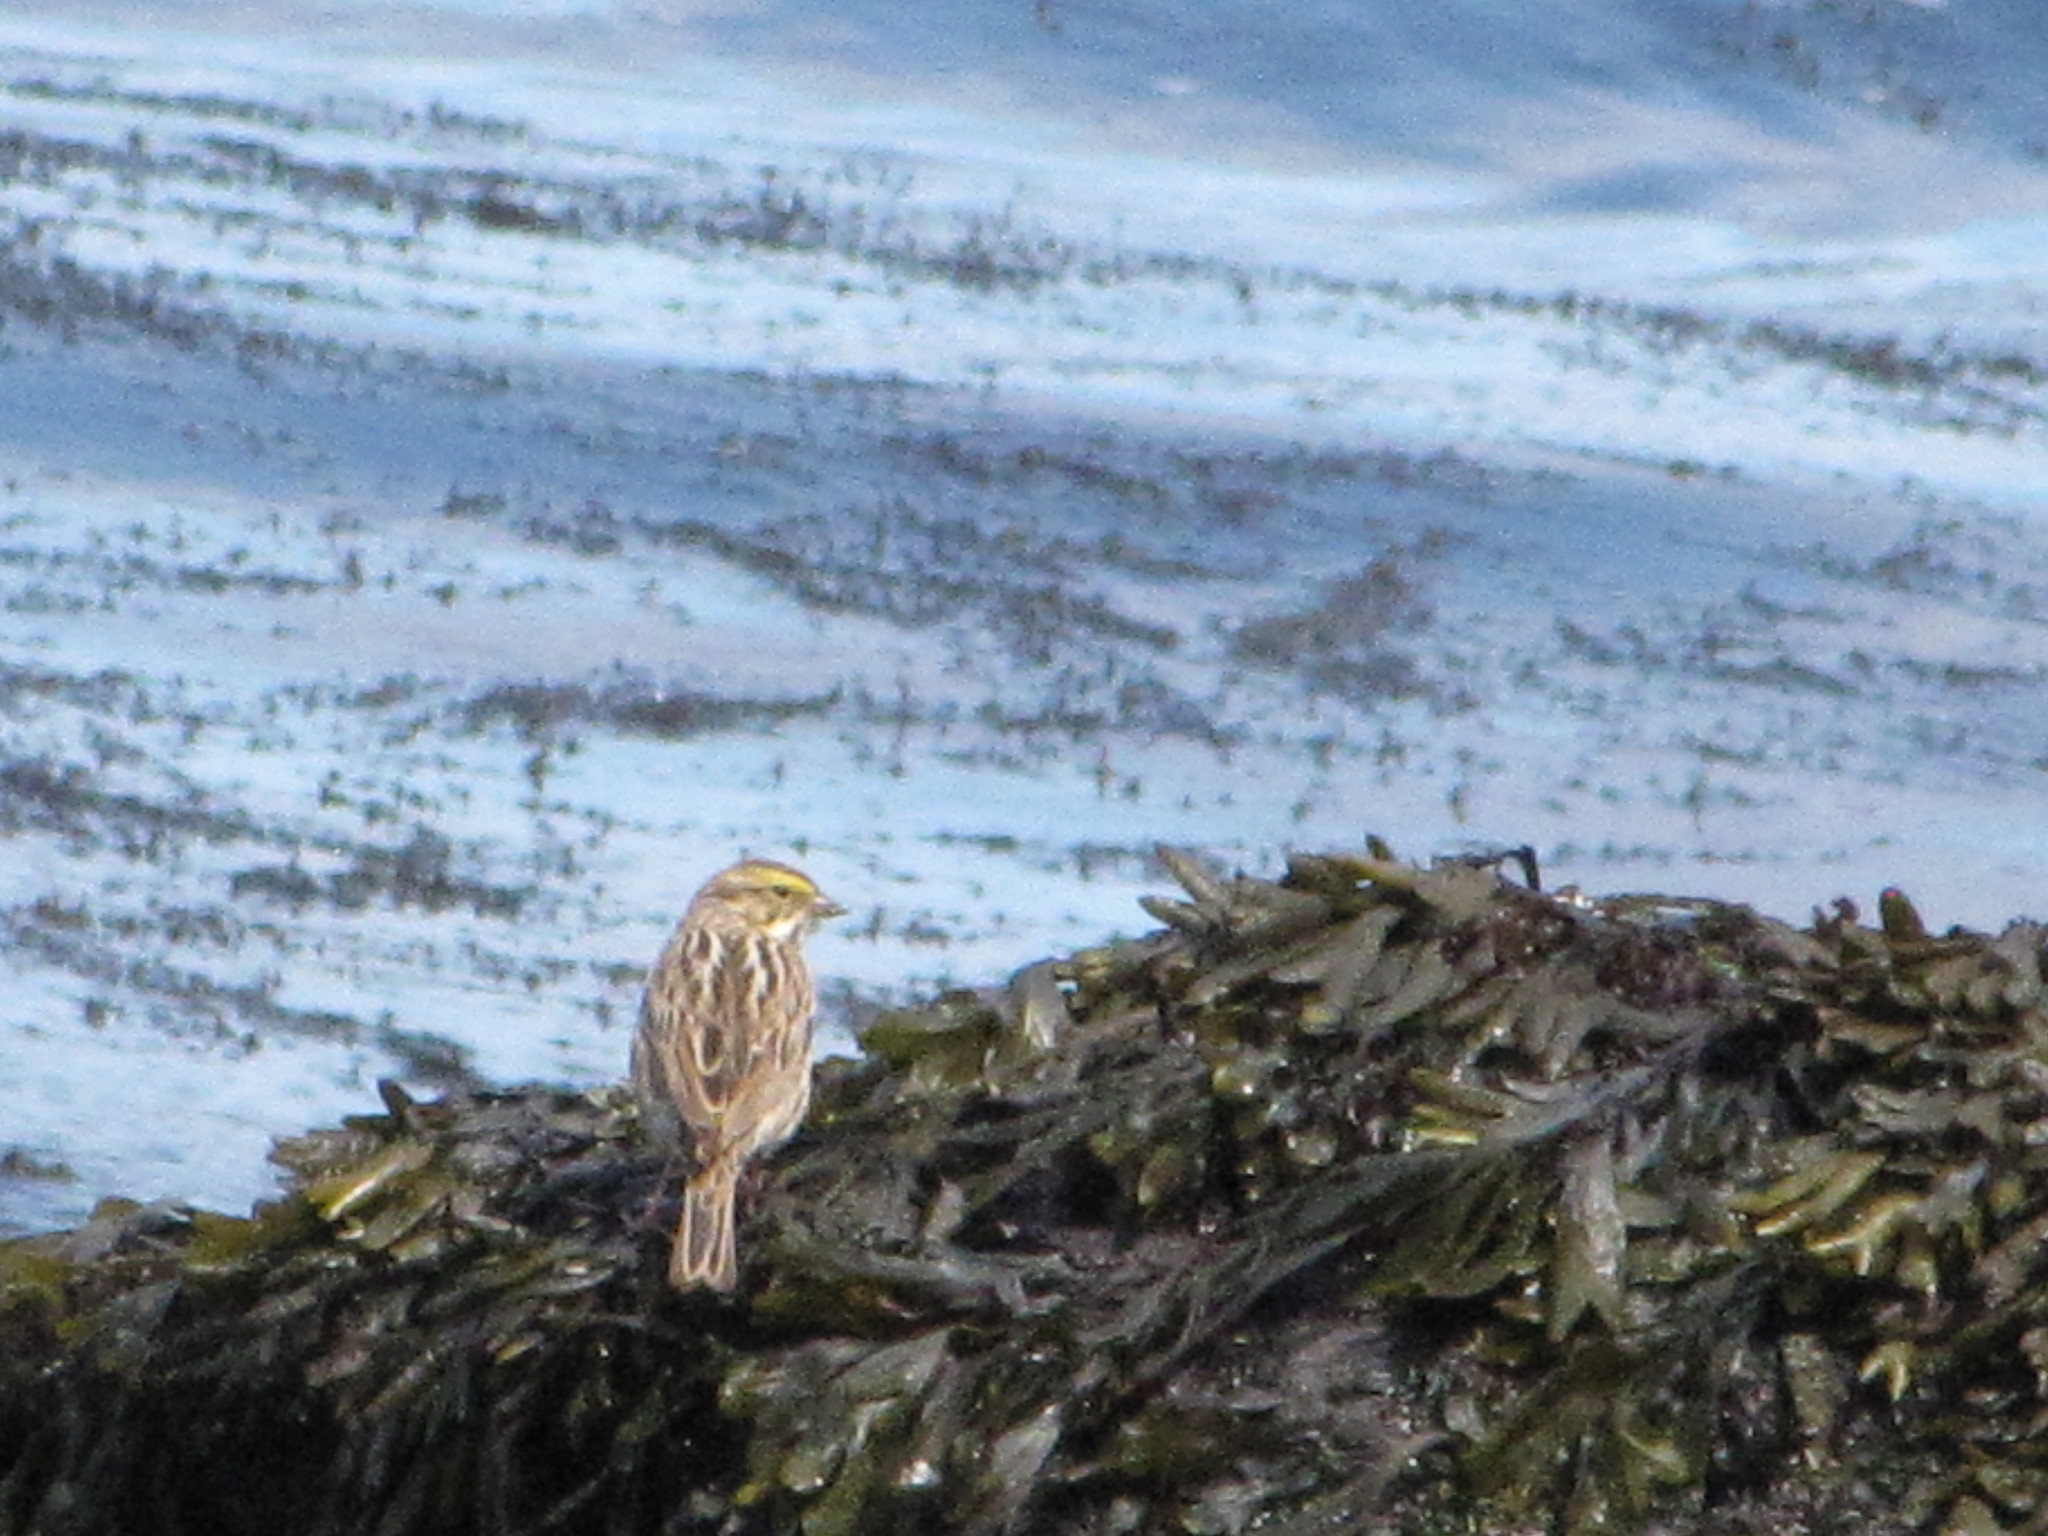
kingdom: Animalia
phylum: Chordata
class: Aves
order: Passeriformes
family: Passerellidae
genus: Passerculus
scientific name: Passerculus sandwichensis
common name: Savannah sparrow
